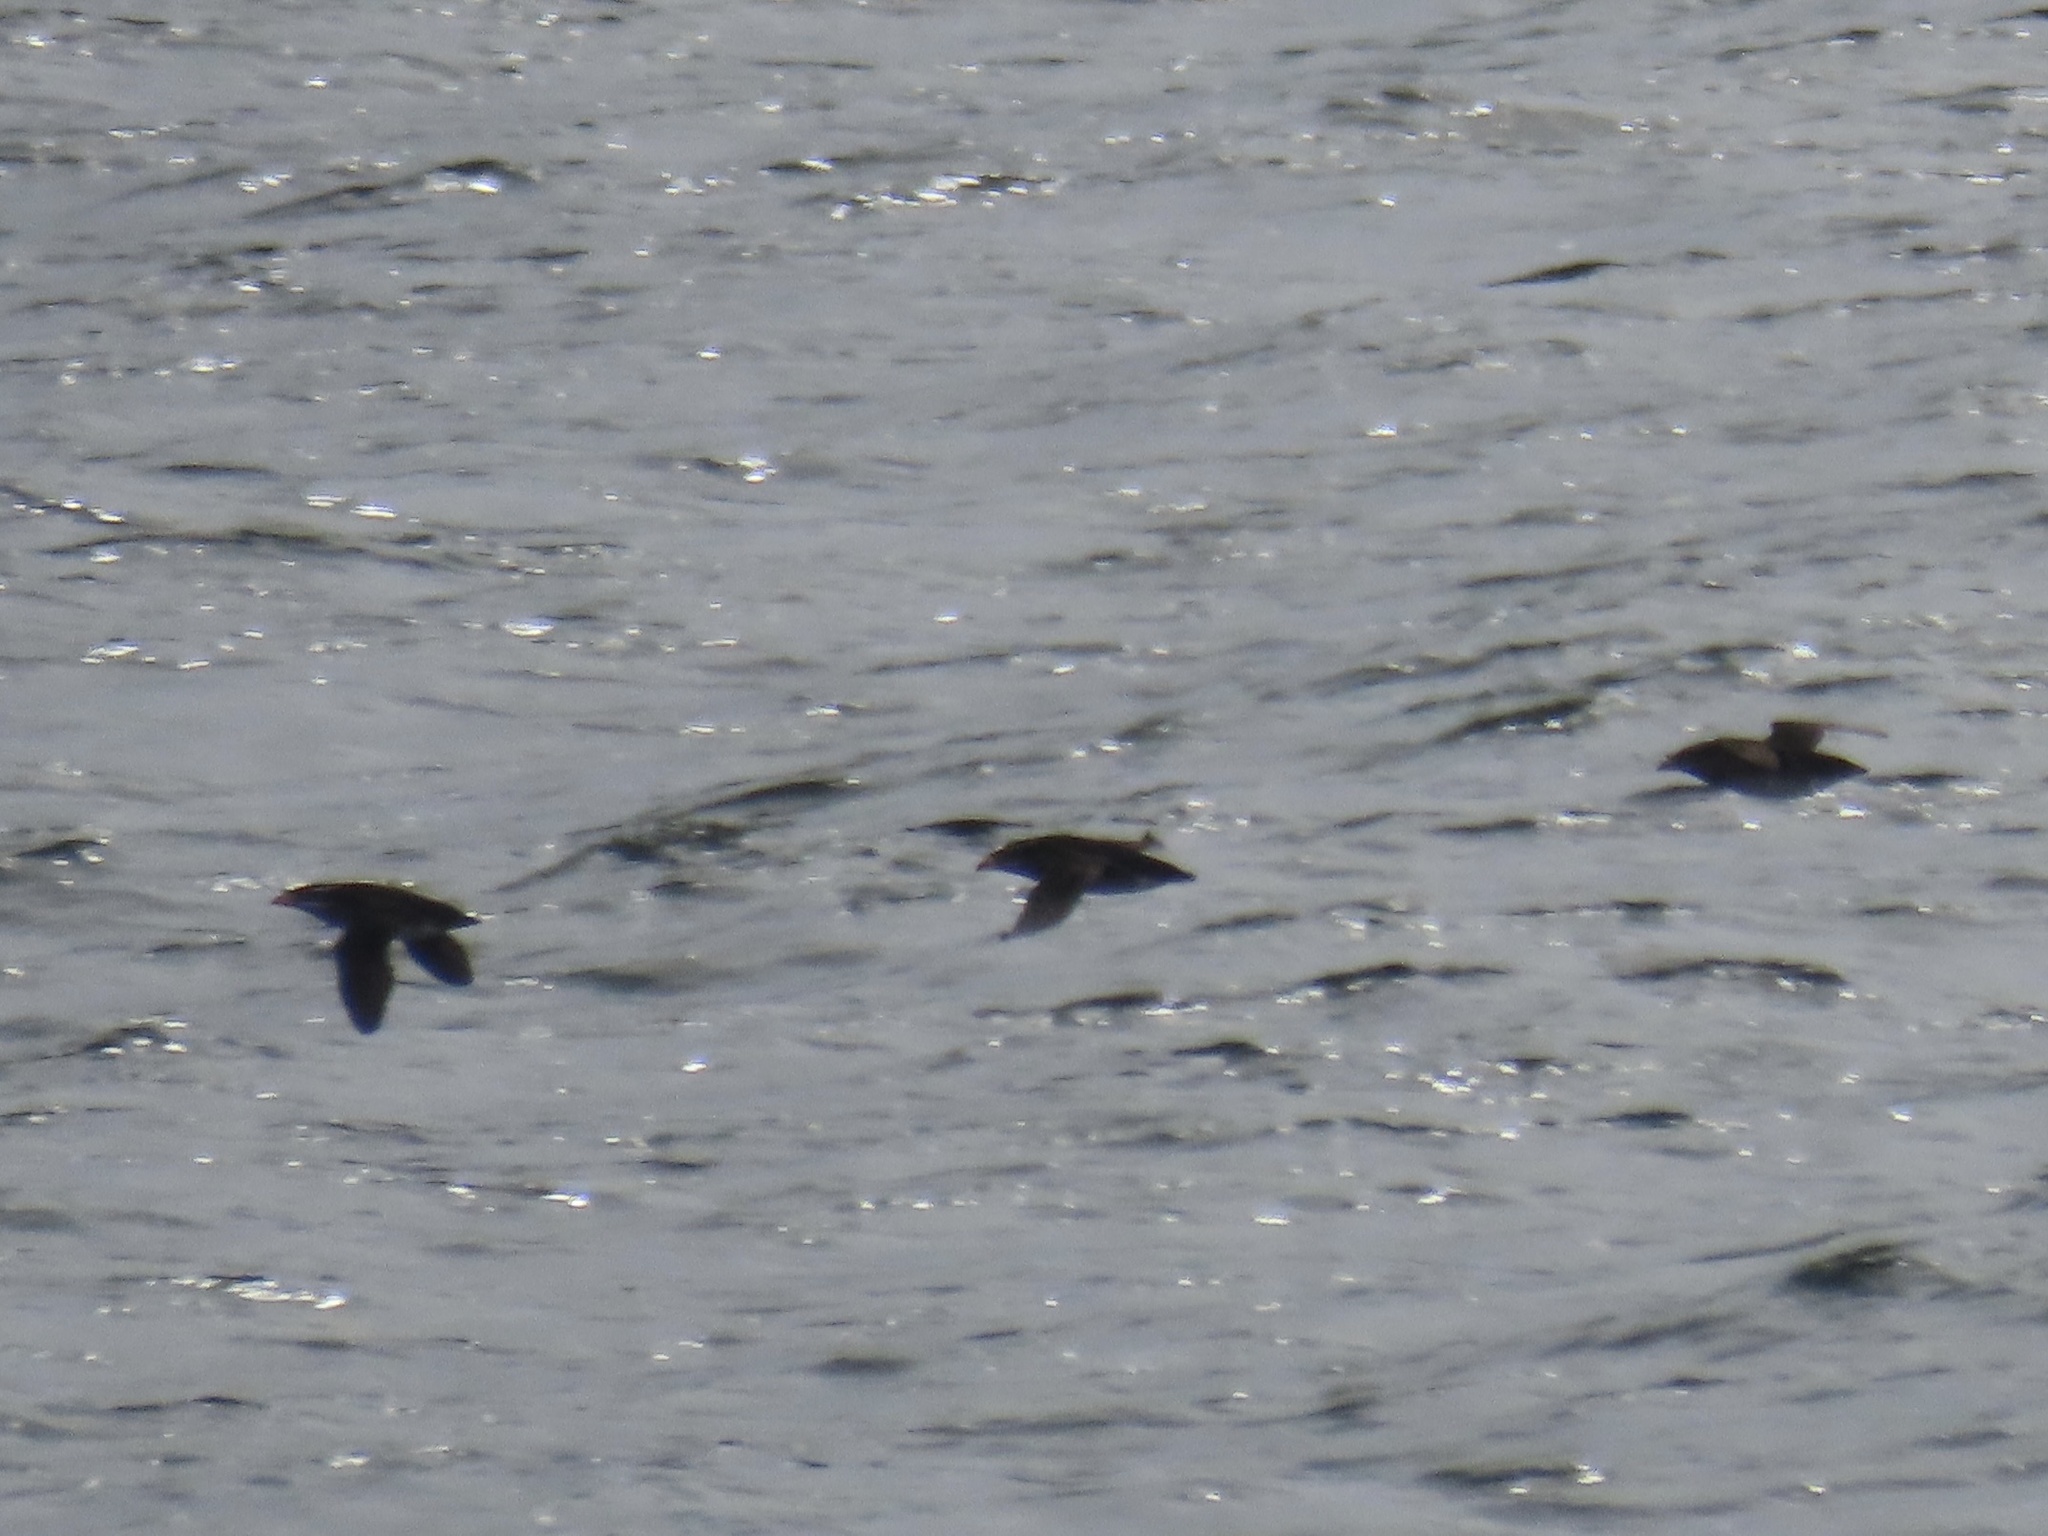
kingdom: Animalia
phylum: Chordata
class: Aves
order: Charadriiformes
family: Alcidae
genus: Cerorhinca
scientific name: Cerorhinca monocerata
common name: Rhinoceros auklet
